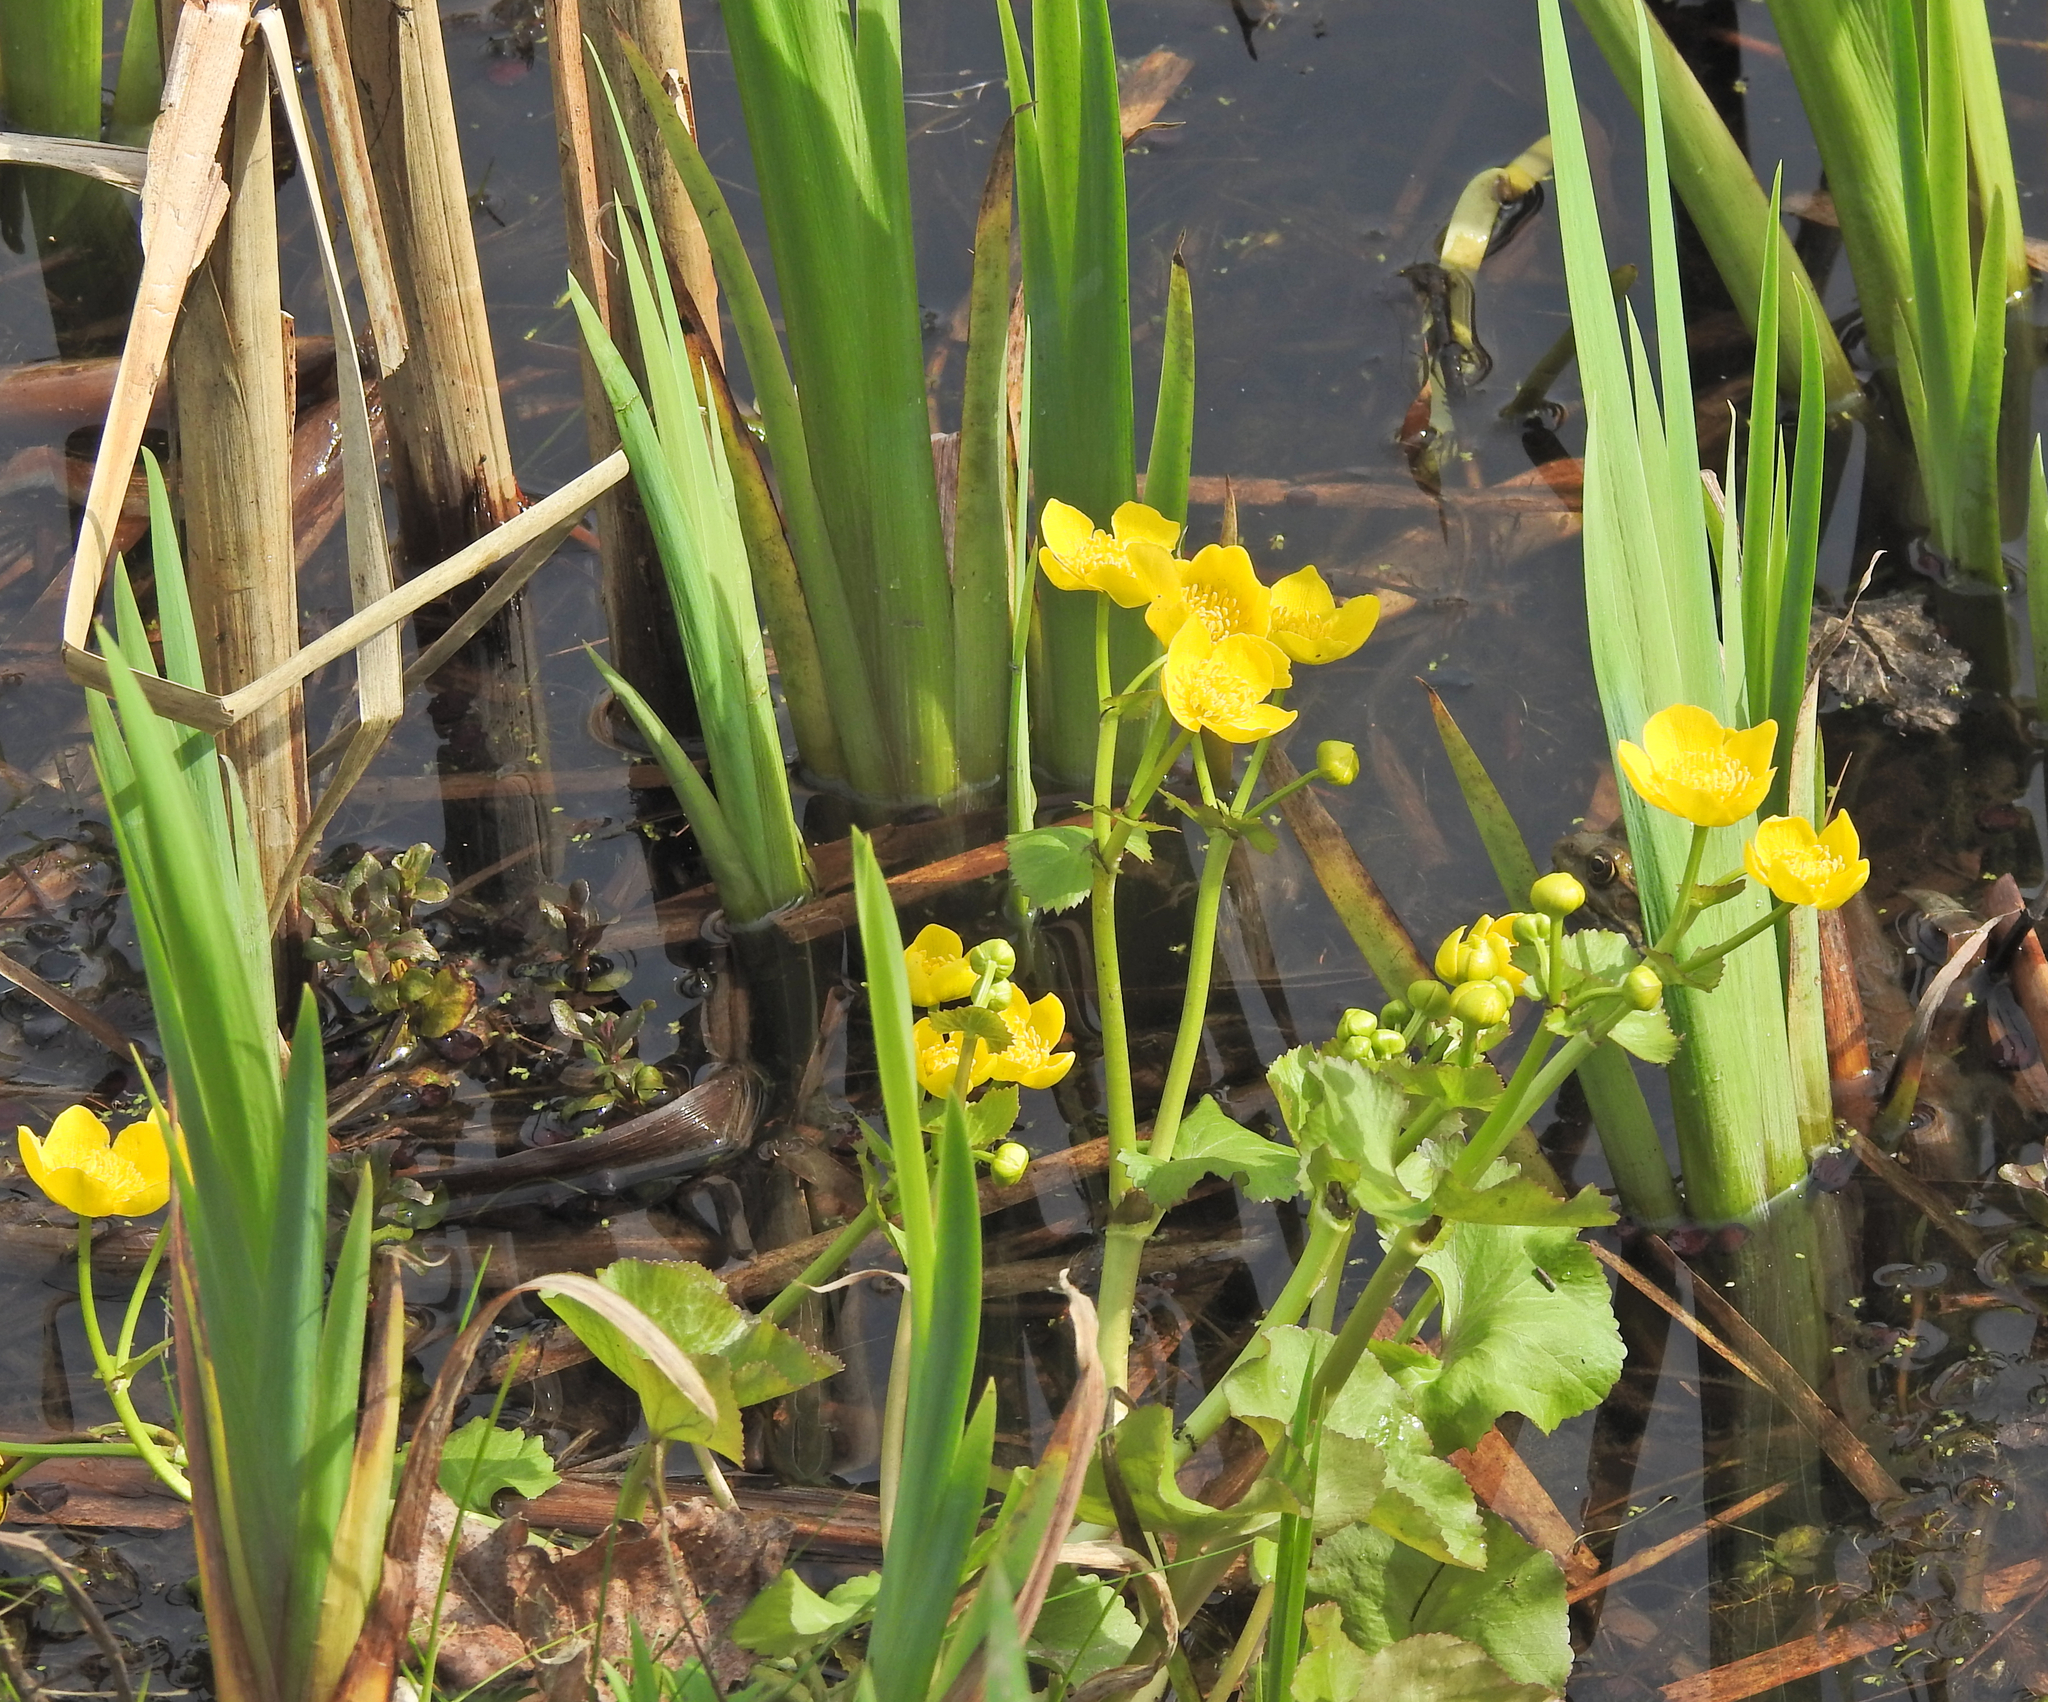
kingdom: Plantae
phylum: Tracheophyta
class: Magnoliopsida
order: Ranunculales
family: Ranunculaceae
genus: Caltha
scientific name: Caltha palustris
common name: Marsh marigold
